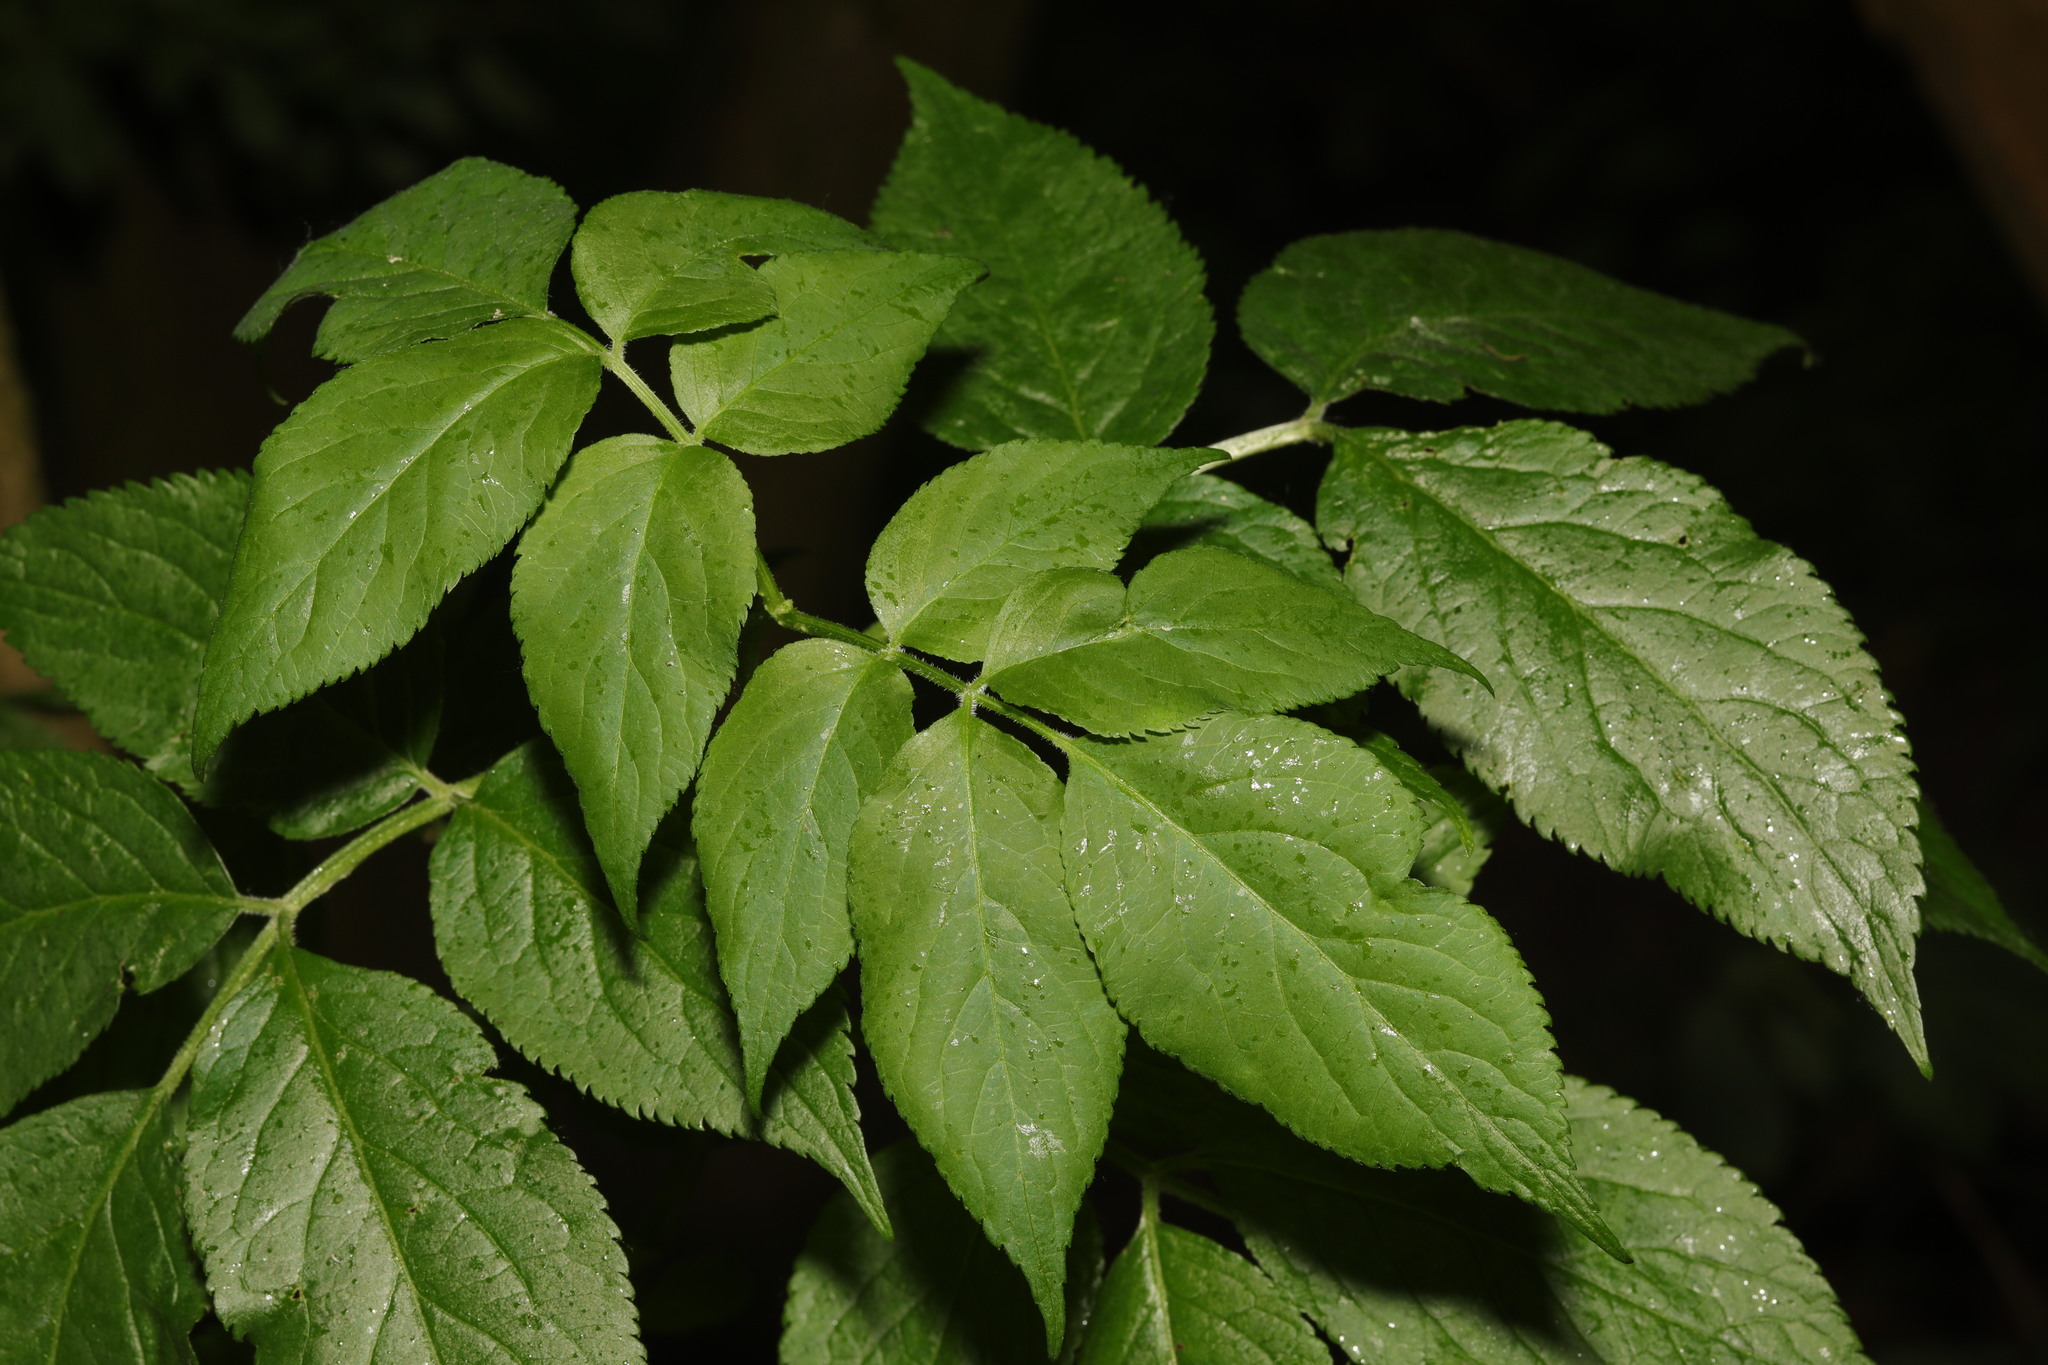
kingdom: Plantae
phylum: Tracheophyta
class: Magnoliopsida
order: Dipsacales
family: Viburnaceae
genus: Sambucus
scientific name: Sambucus nigra
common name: Elder
